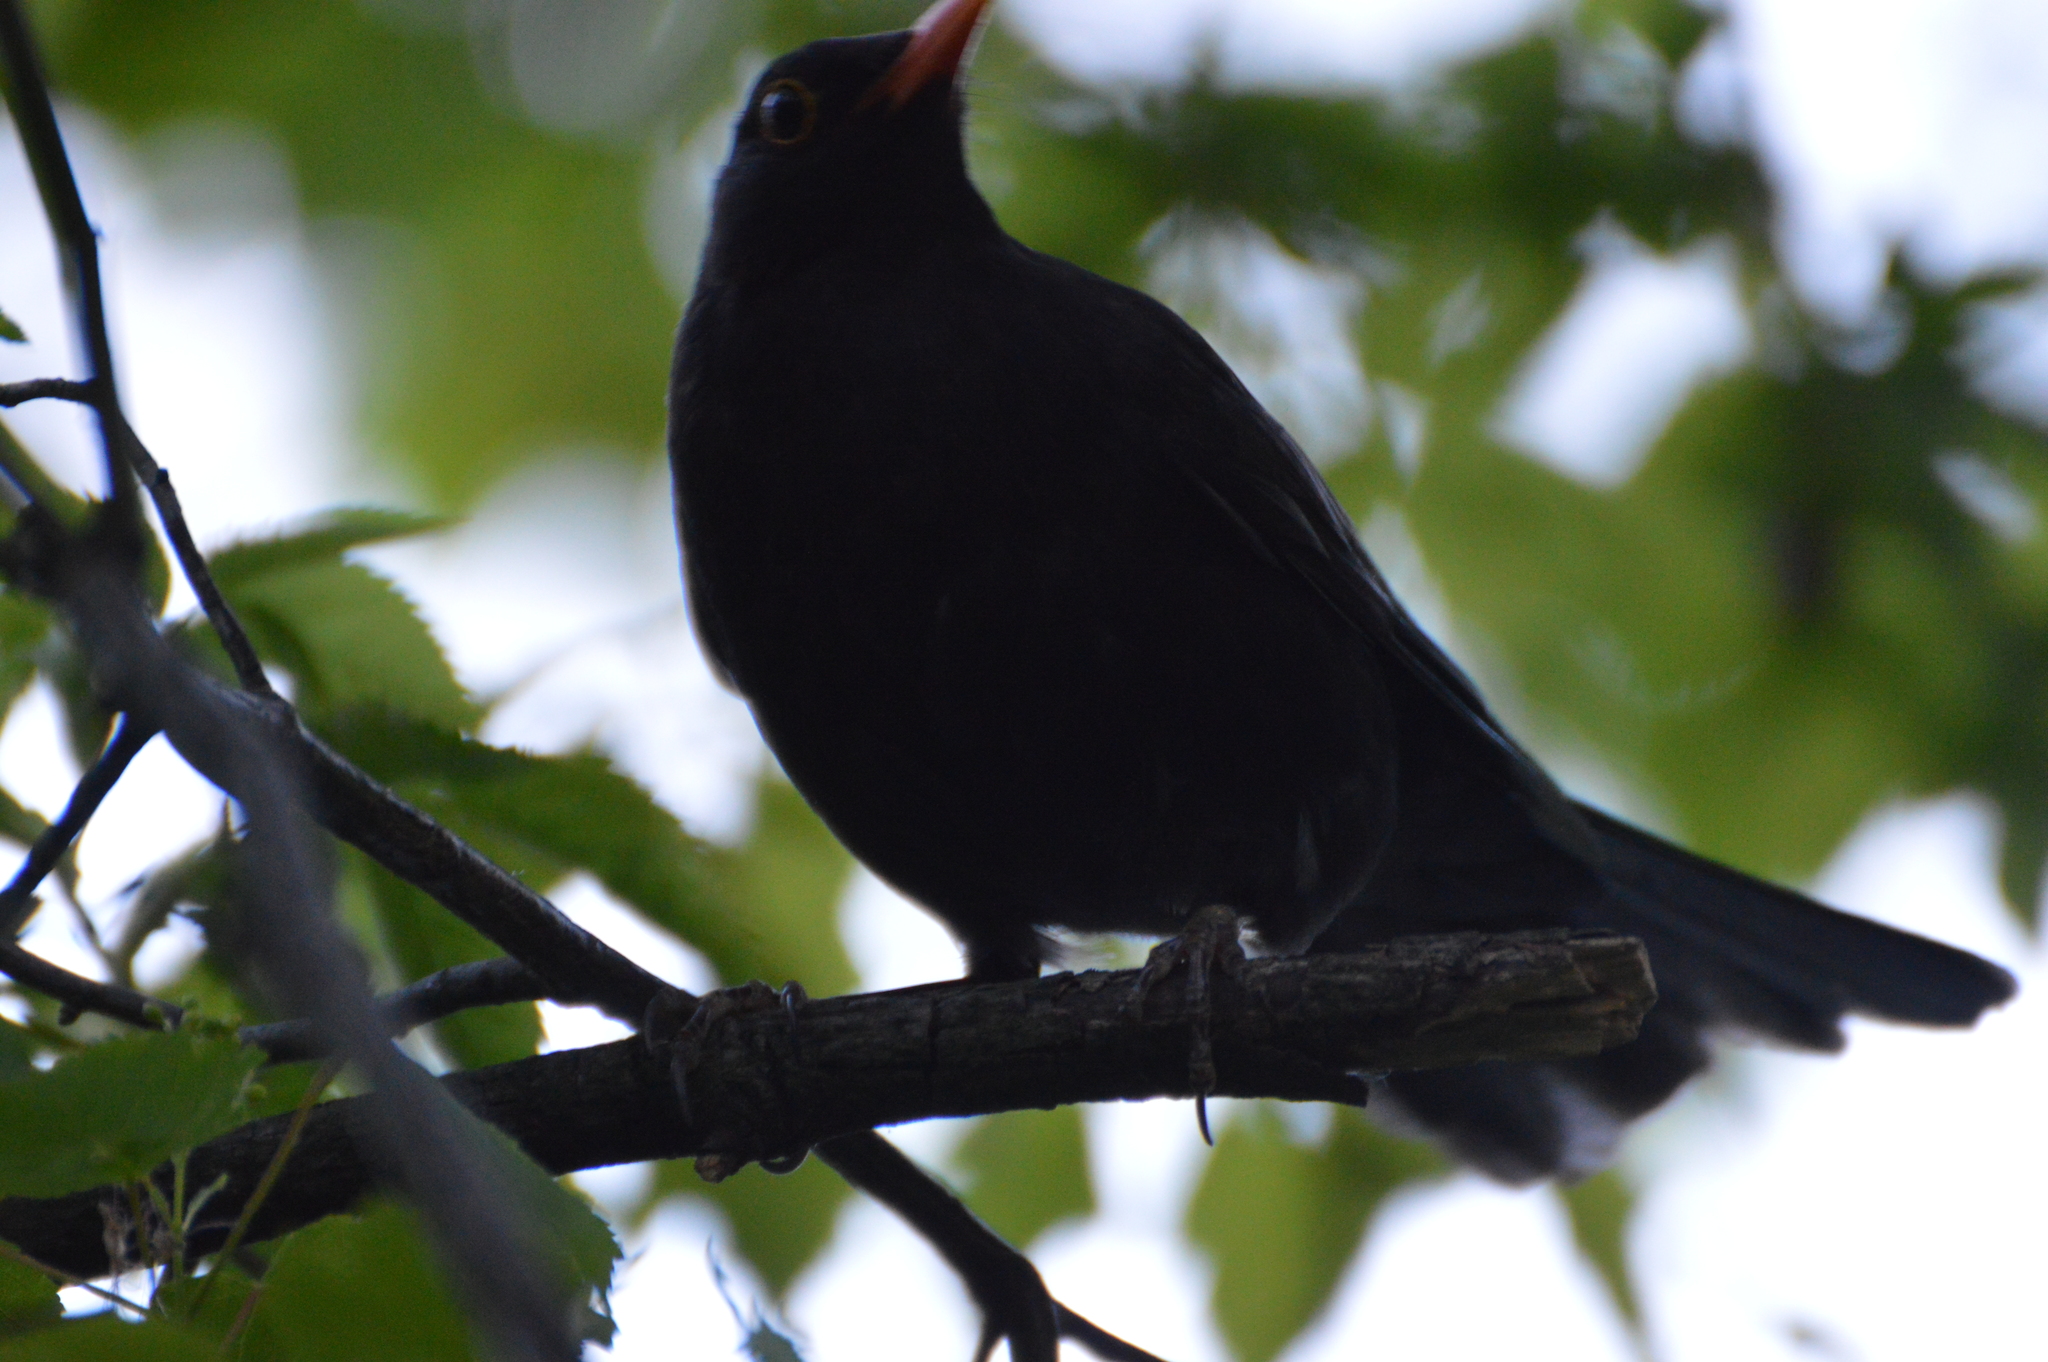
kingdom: Animalia
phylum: Chordata
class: Aves
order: Passeriformes
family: Turdidae
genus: Turdus
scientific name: Turdus merula
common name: Common blackbird
